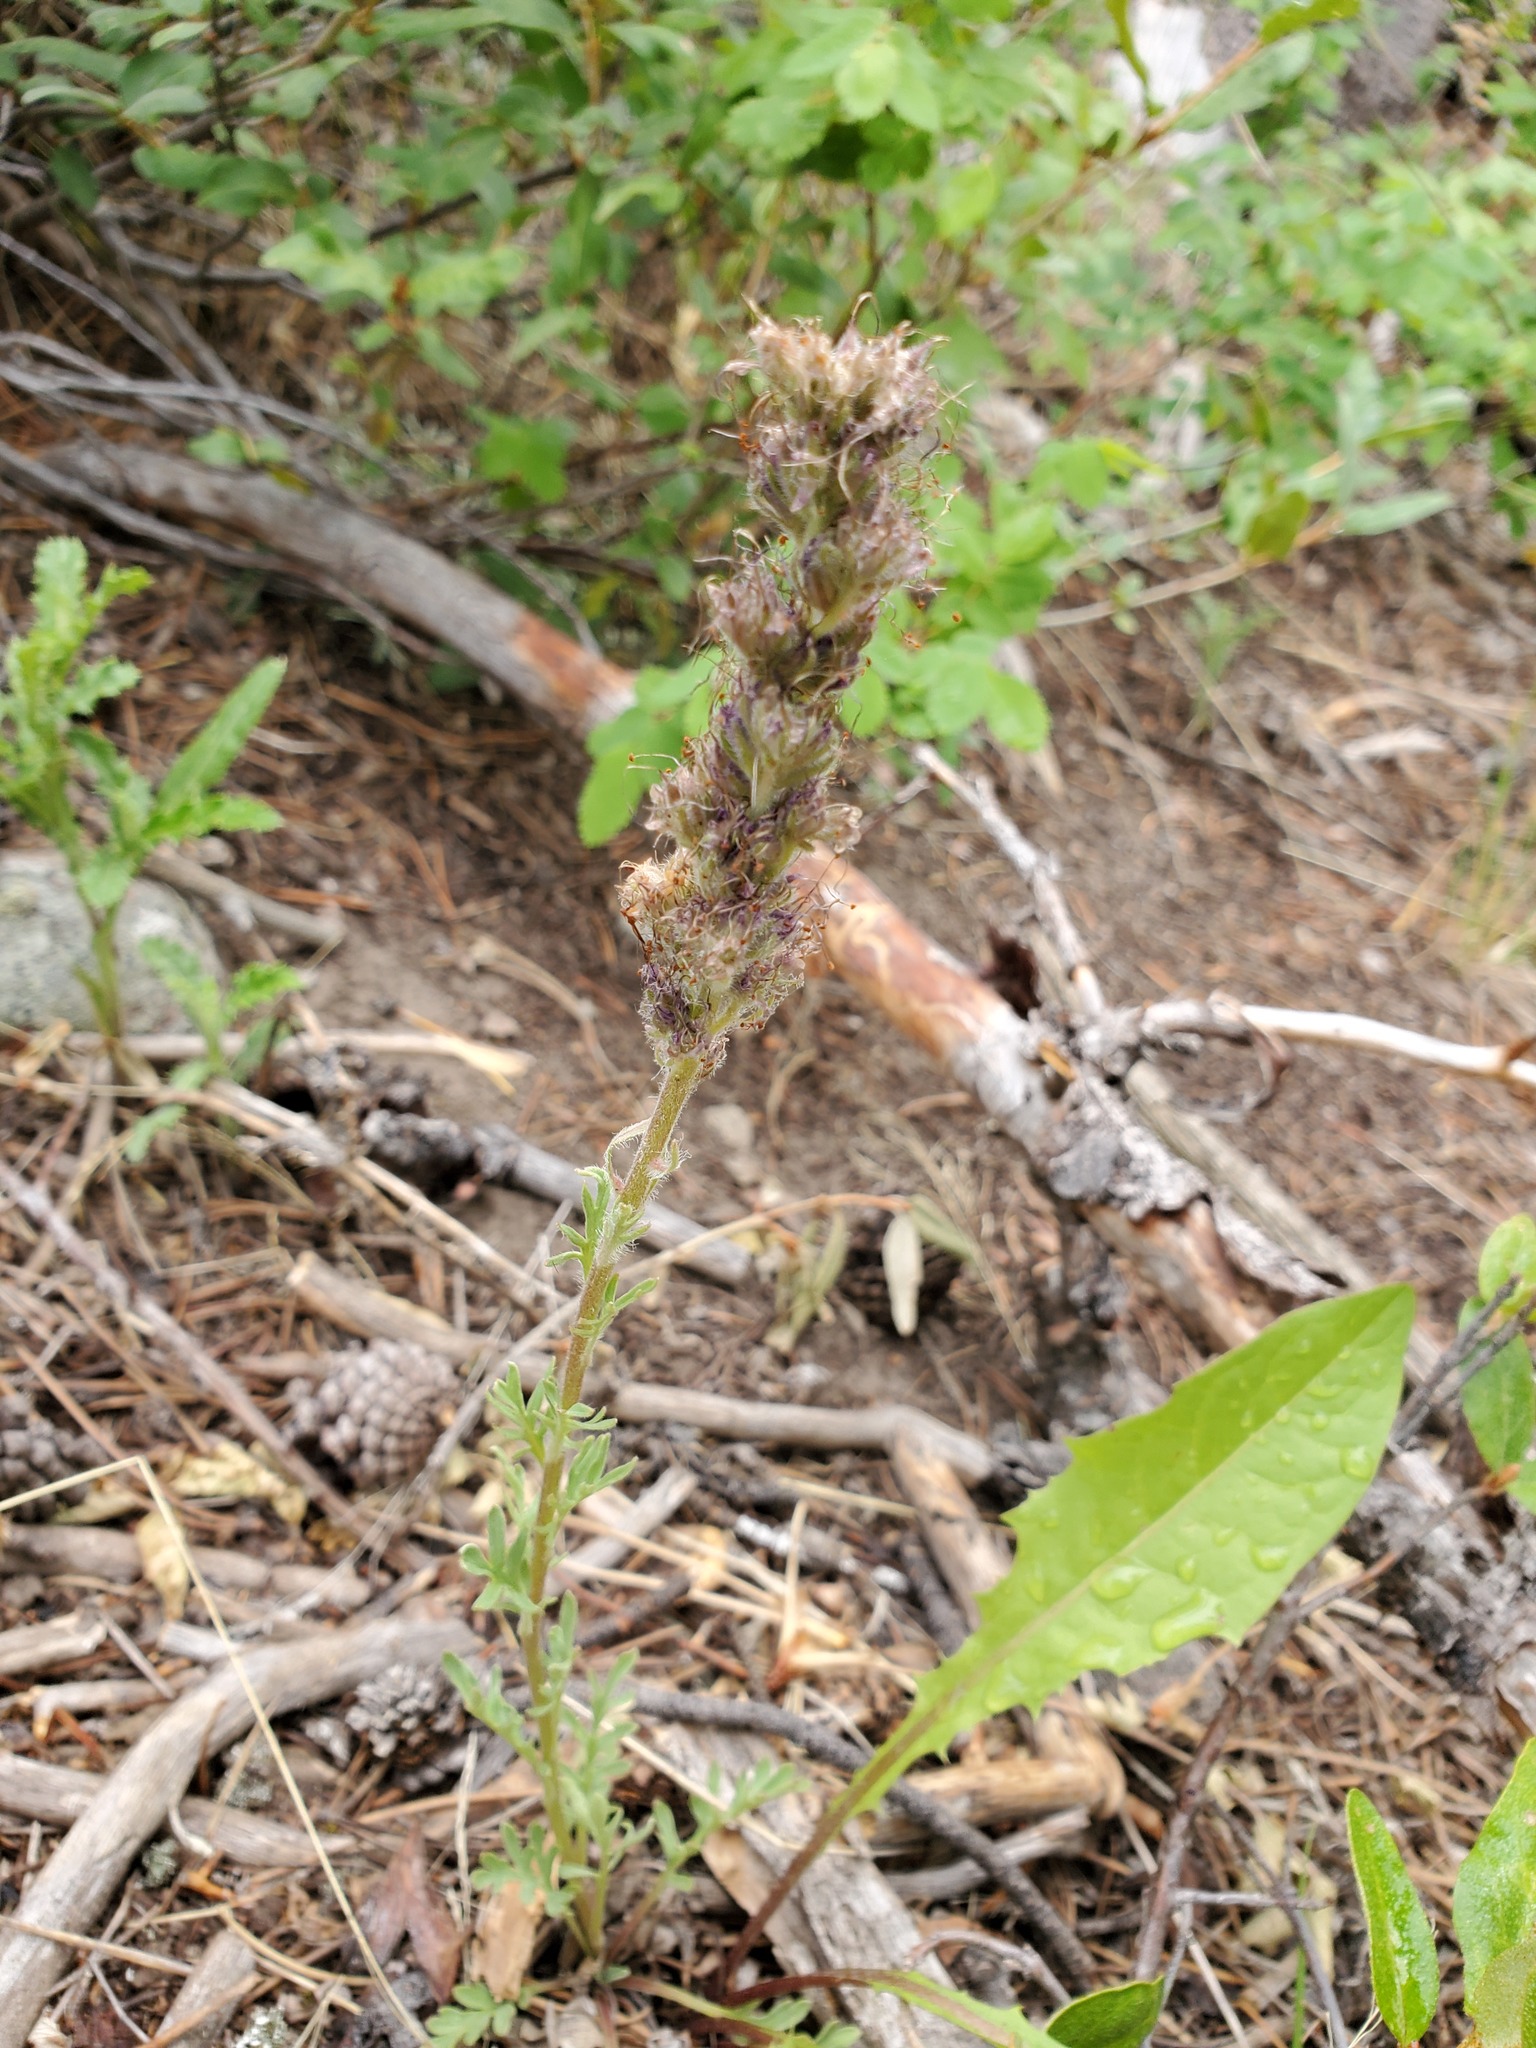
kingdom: Plantae
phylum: Tracheophyta
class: Magnoliopsida
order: Boraginales
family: Hydrophyllaceae
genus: Phacelia
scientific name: Phacelia sericea
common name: Silky phacelia
